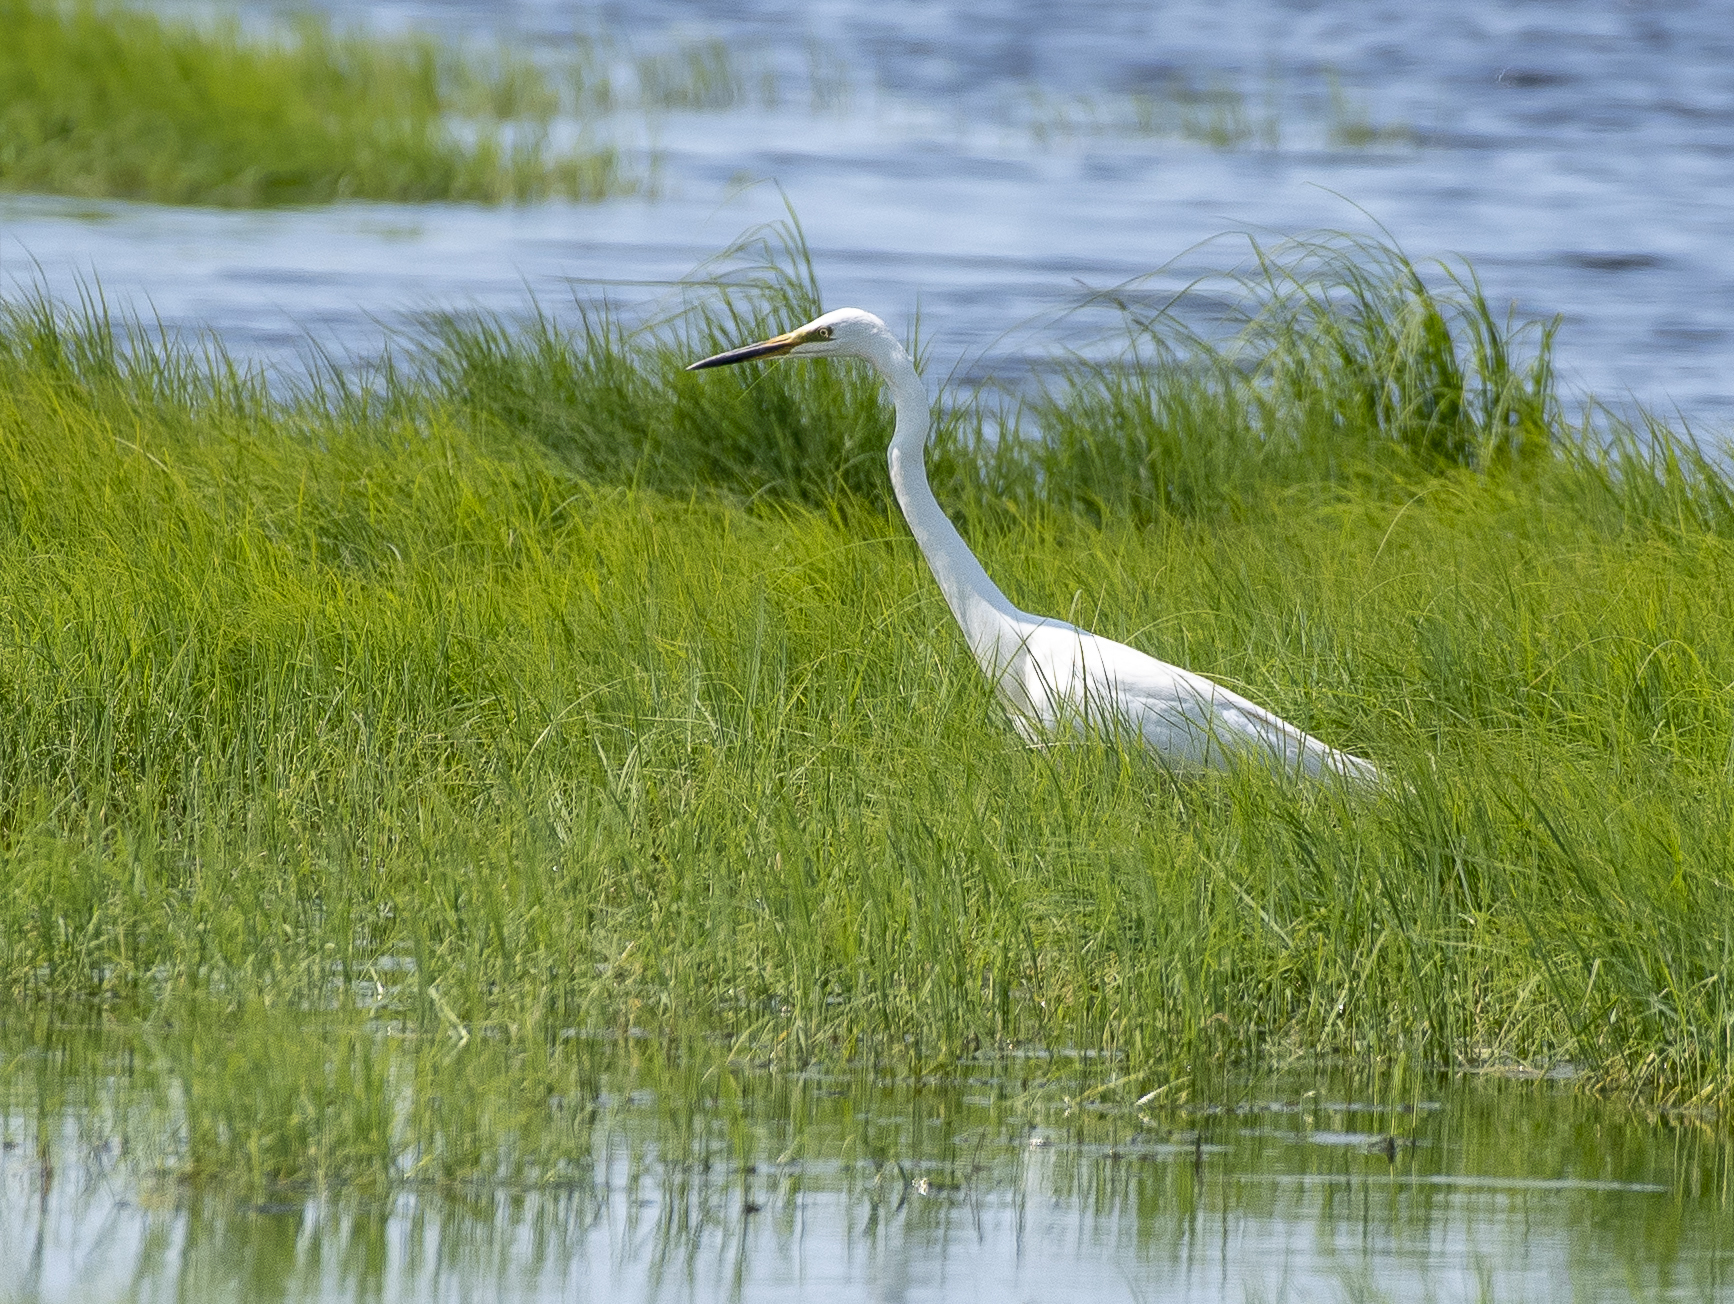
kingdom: Animalia
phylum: Chordata
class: Aves
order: Pelecaniformes
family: Ardeidae
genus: Ardea
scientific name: Ardea alba
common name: Great egret
